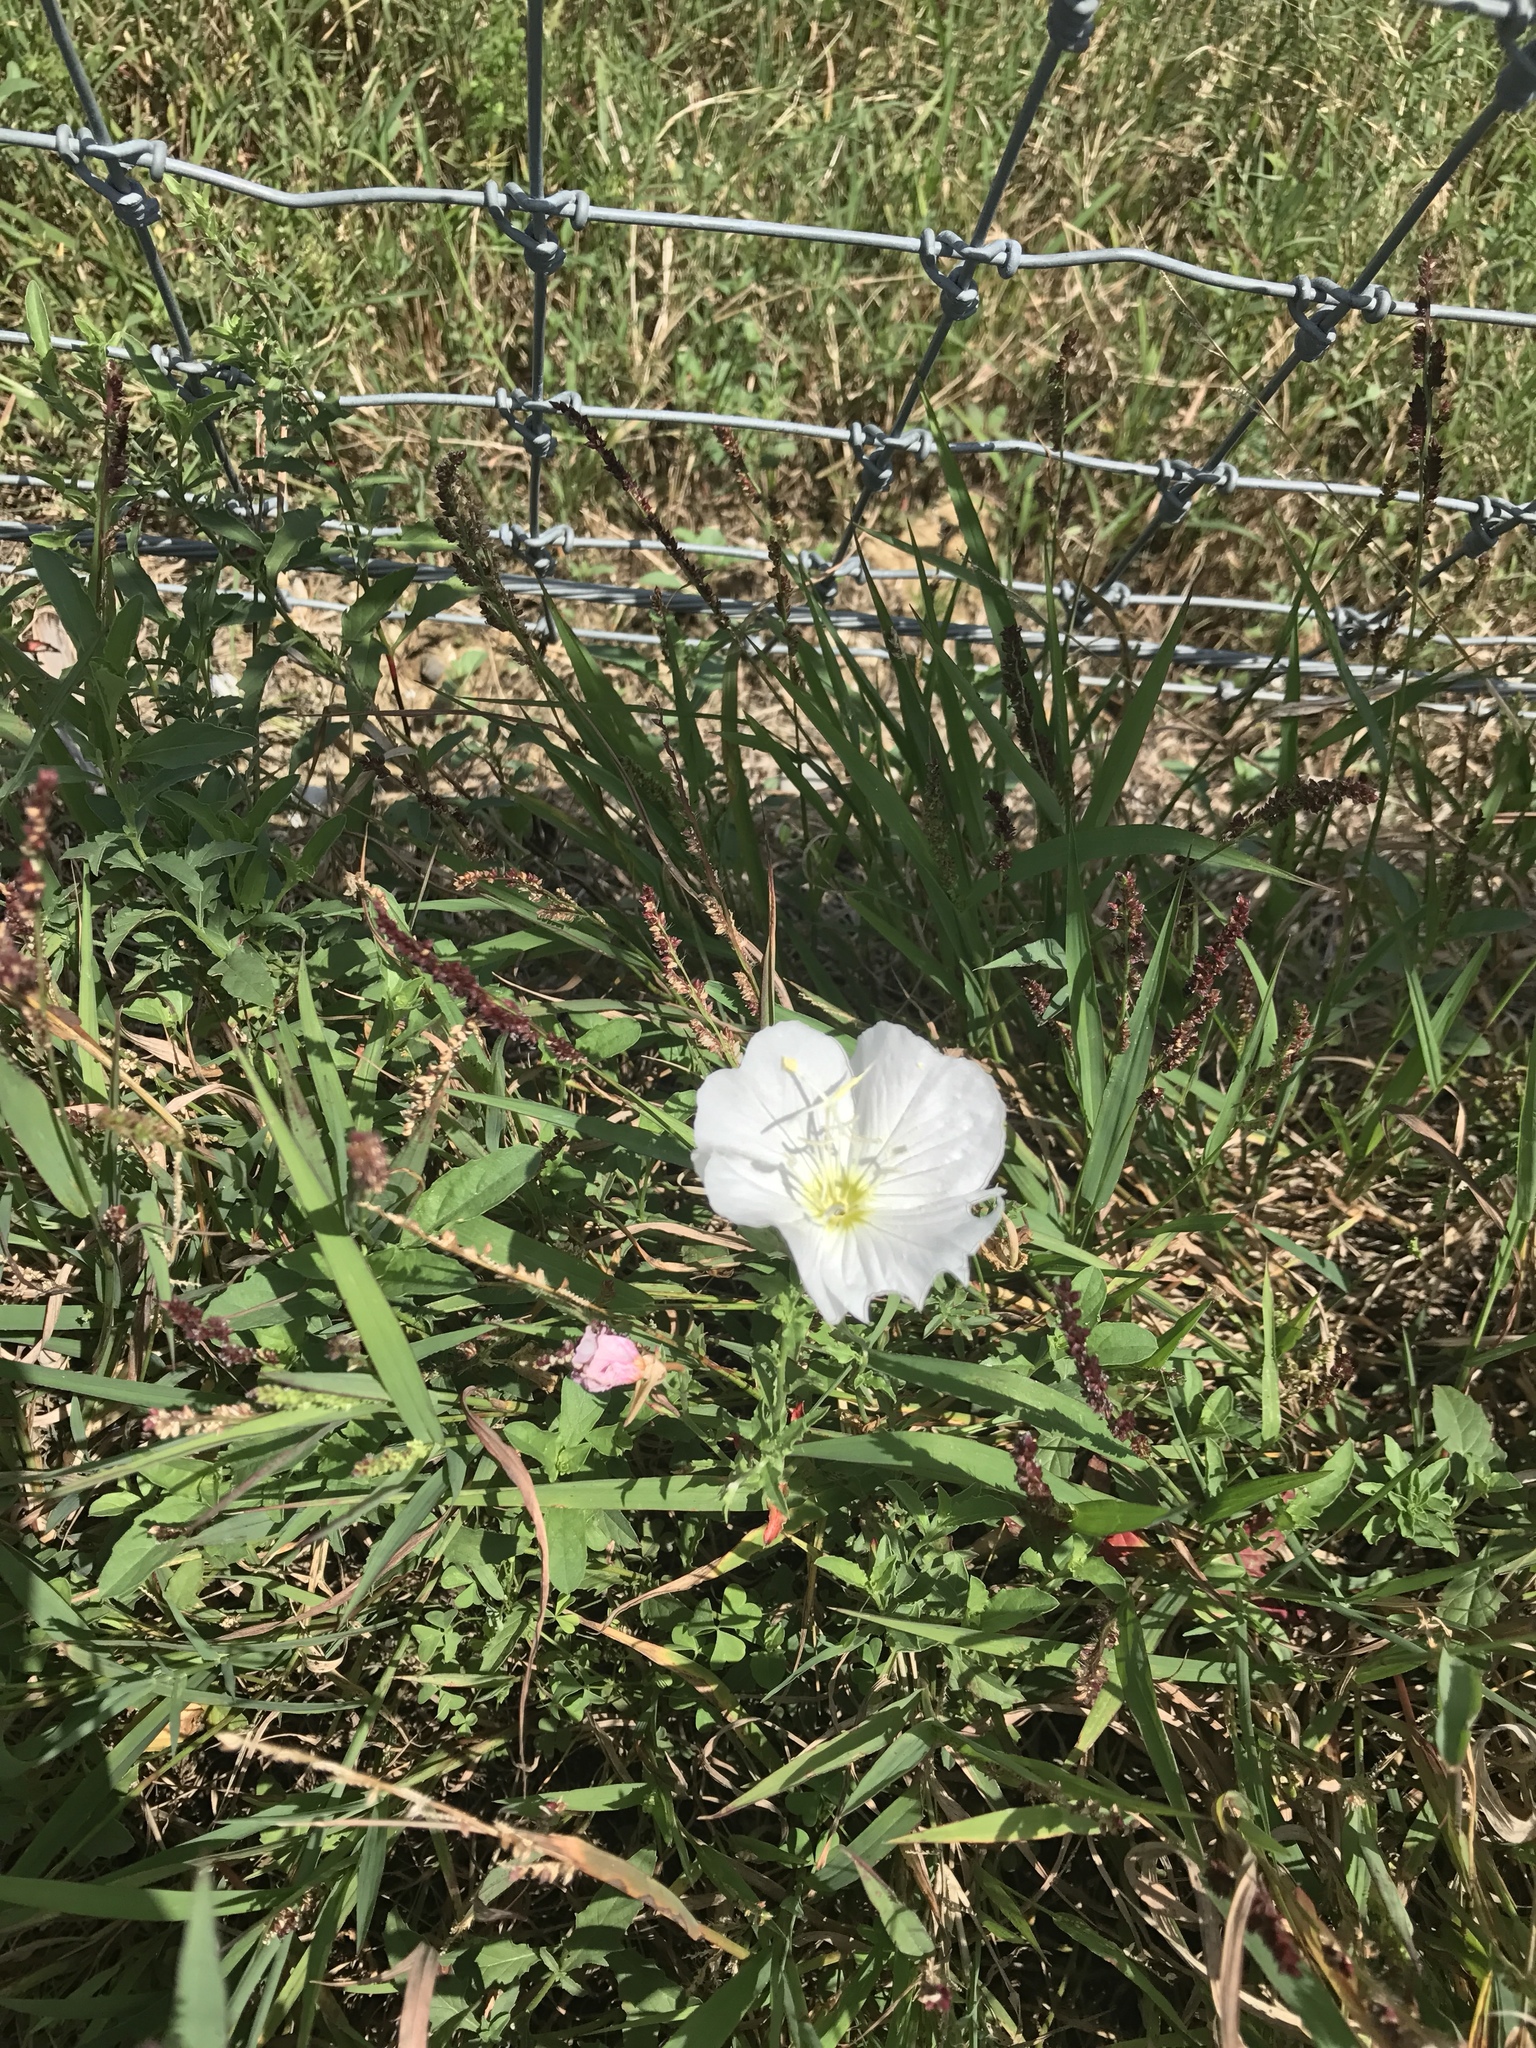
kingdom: Plantae
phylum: Tracheophyta
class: Magnoliopsida
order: Myrtales
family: Onagraceae
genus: Oenothera
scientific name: Oenothera speciosa
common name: White evening-primrose
